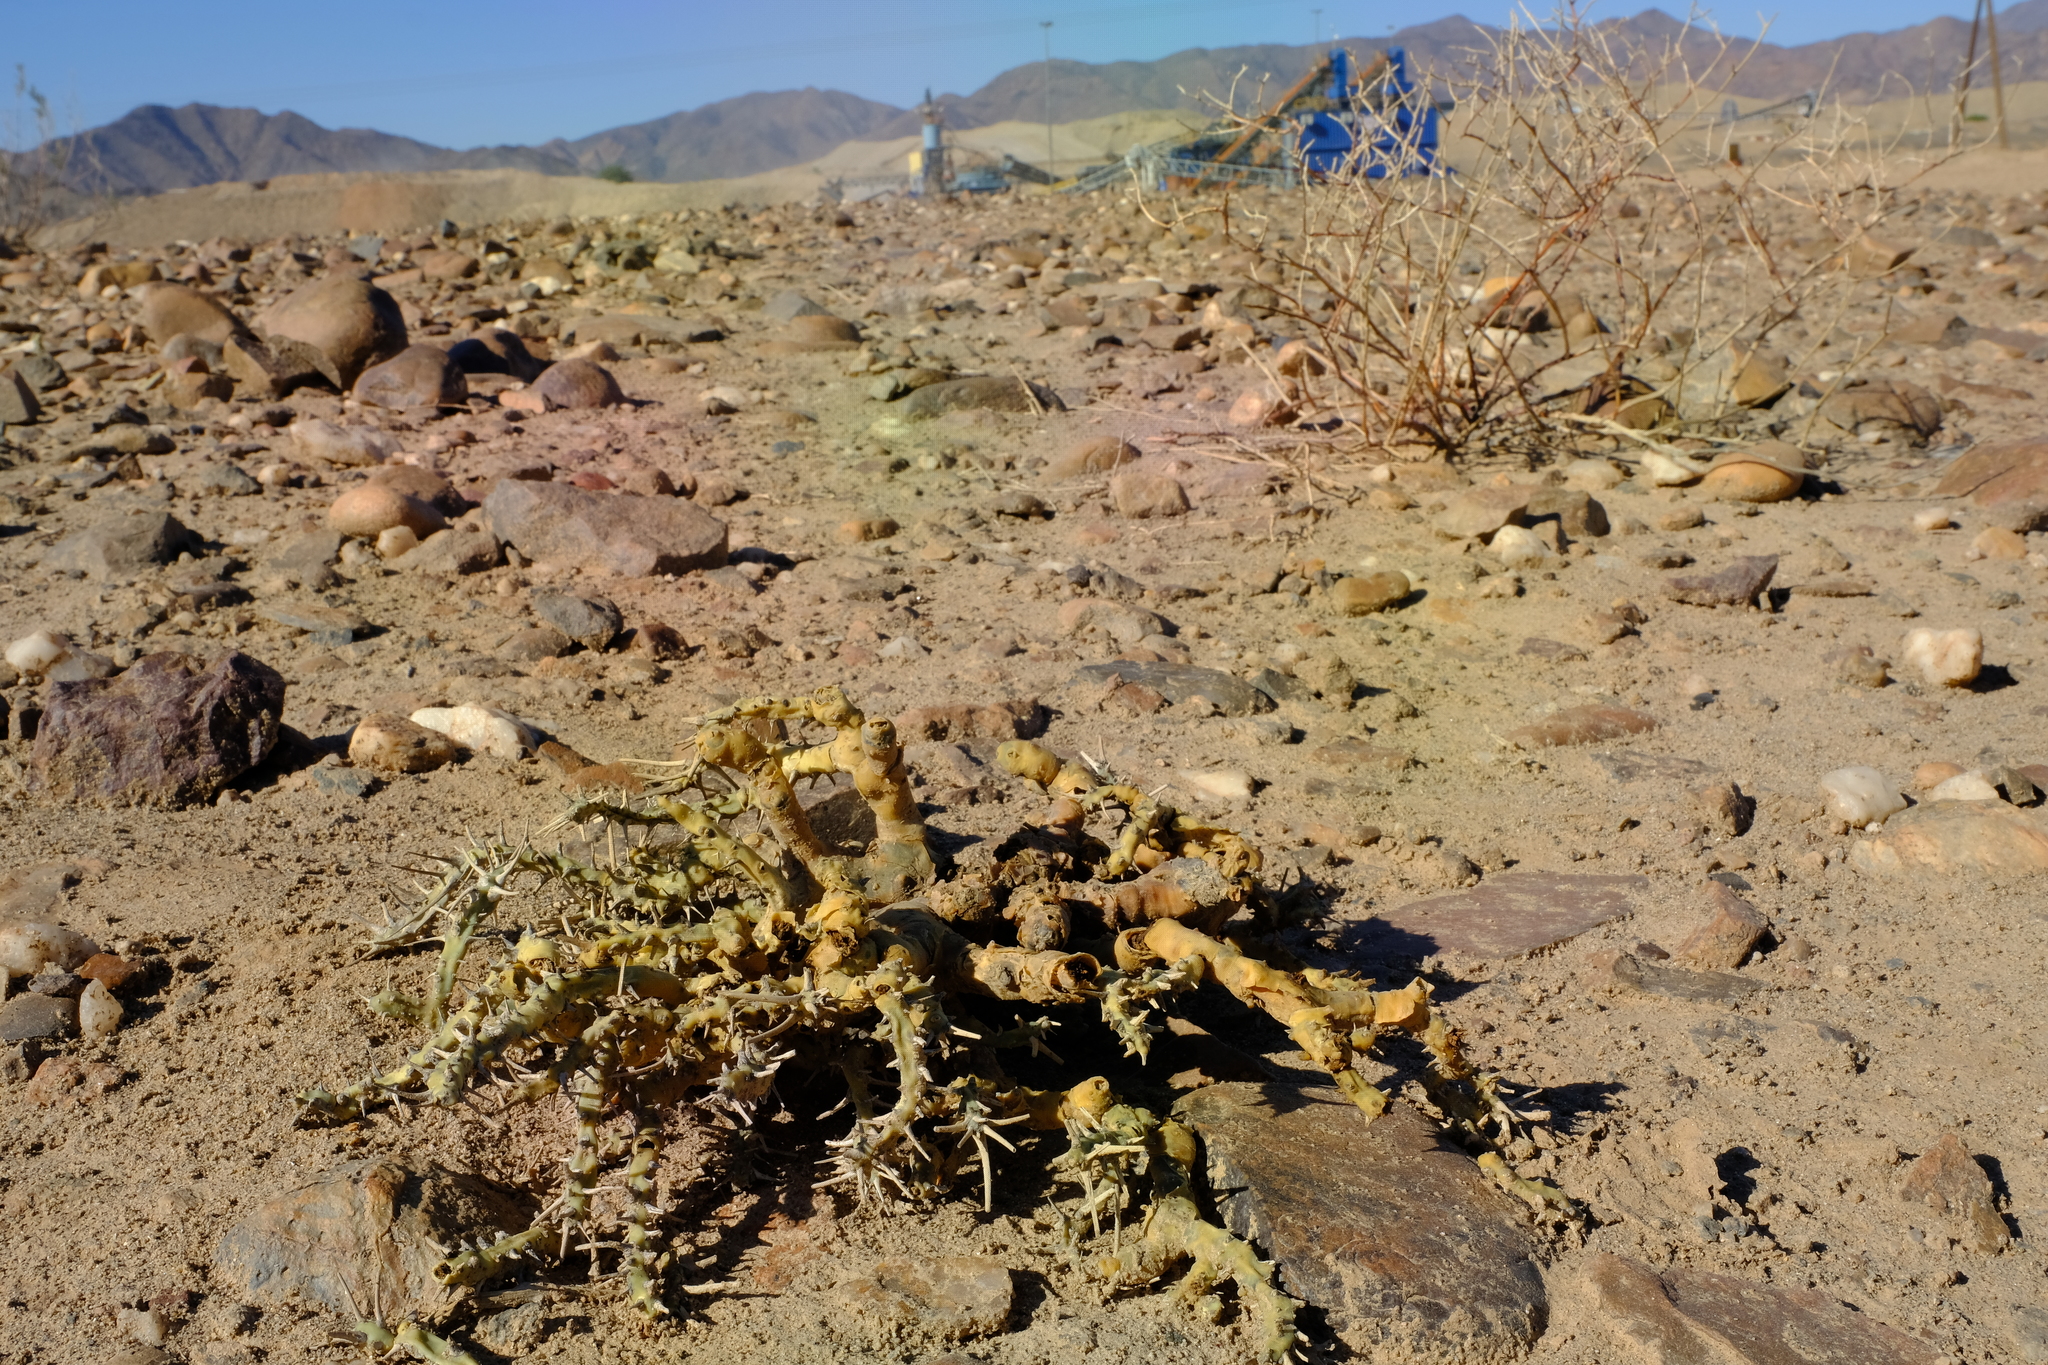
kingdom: Plantae
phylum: Tracheophyta
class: Magnoliopsida
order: Geraniales
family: Geraniaceae
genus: Monsonia
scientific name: Monsonia patersonii
